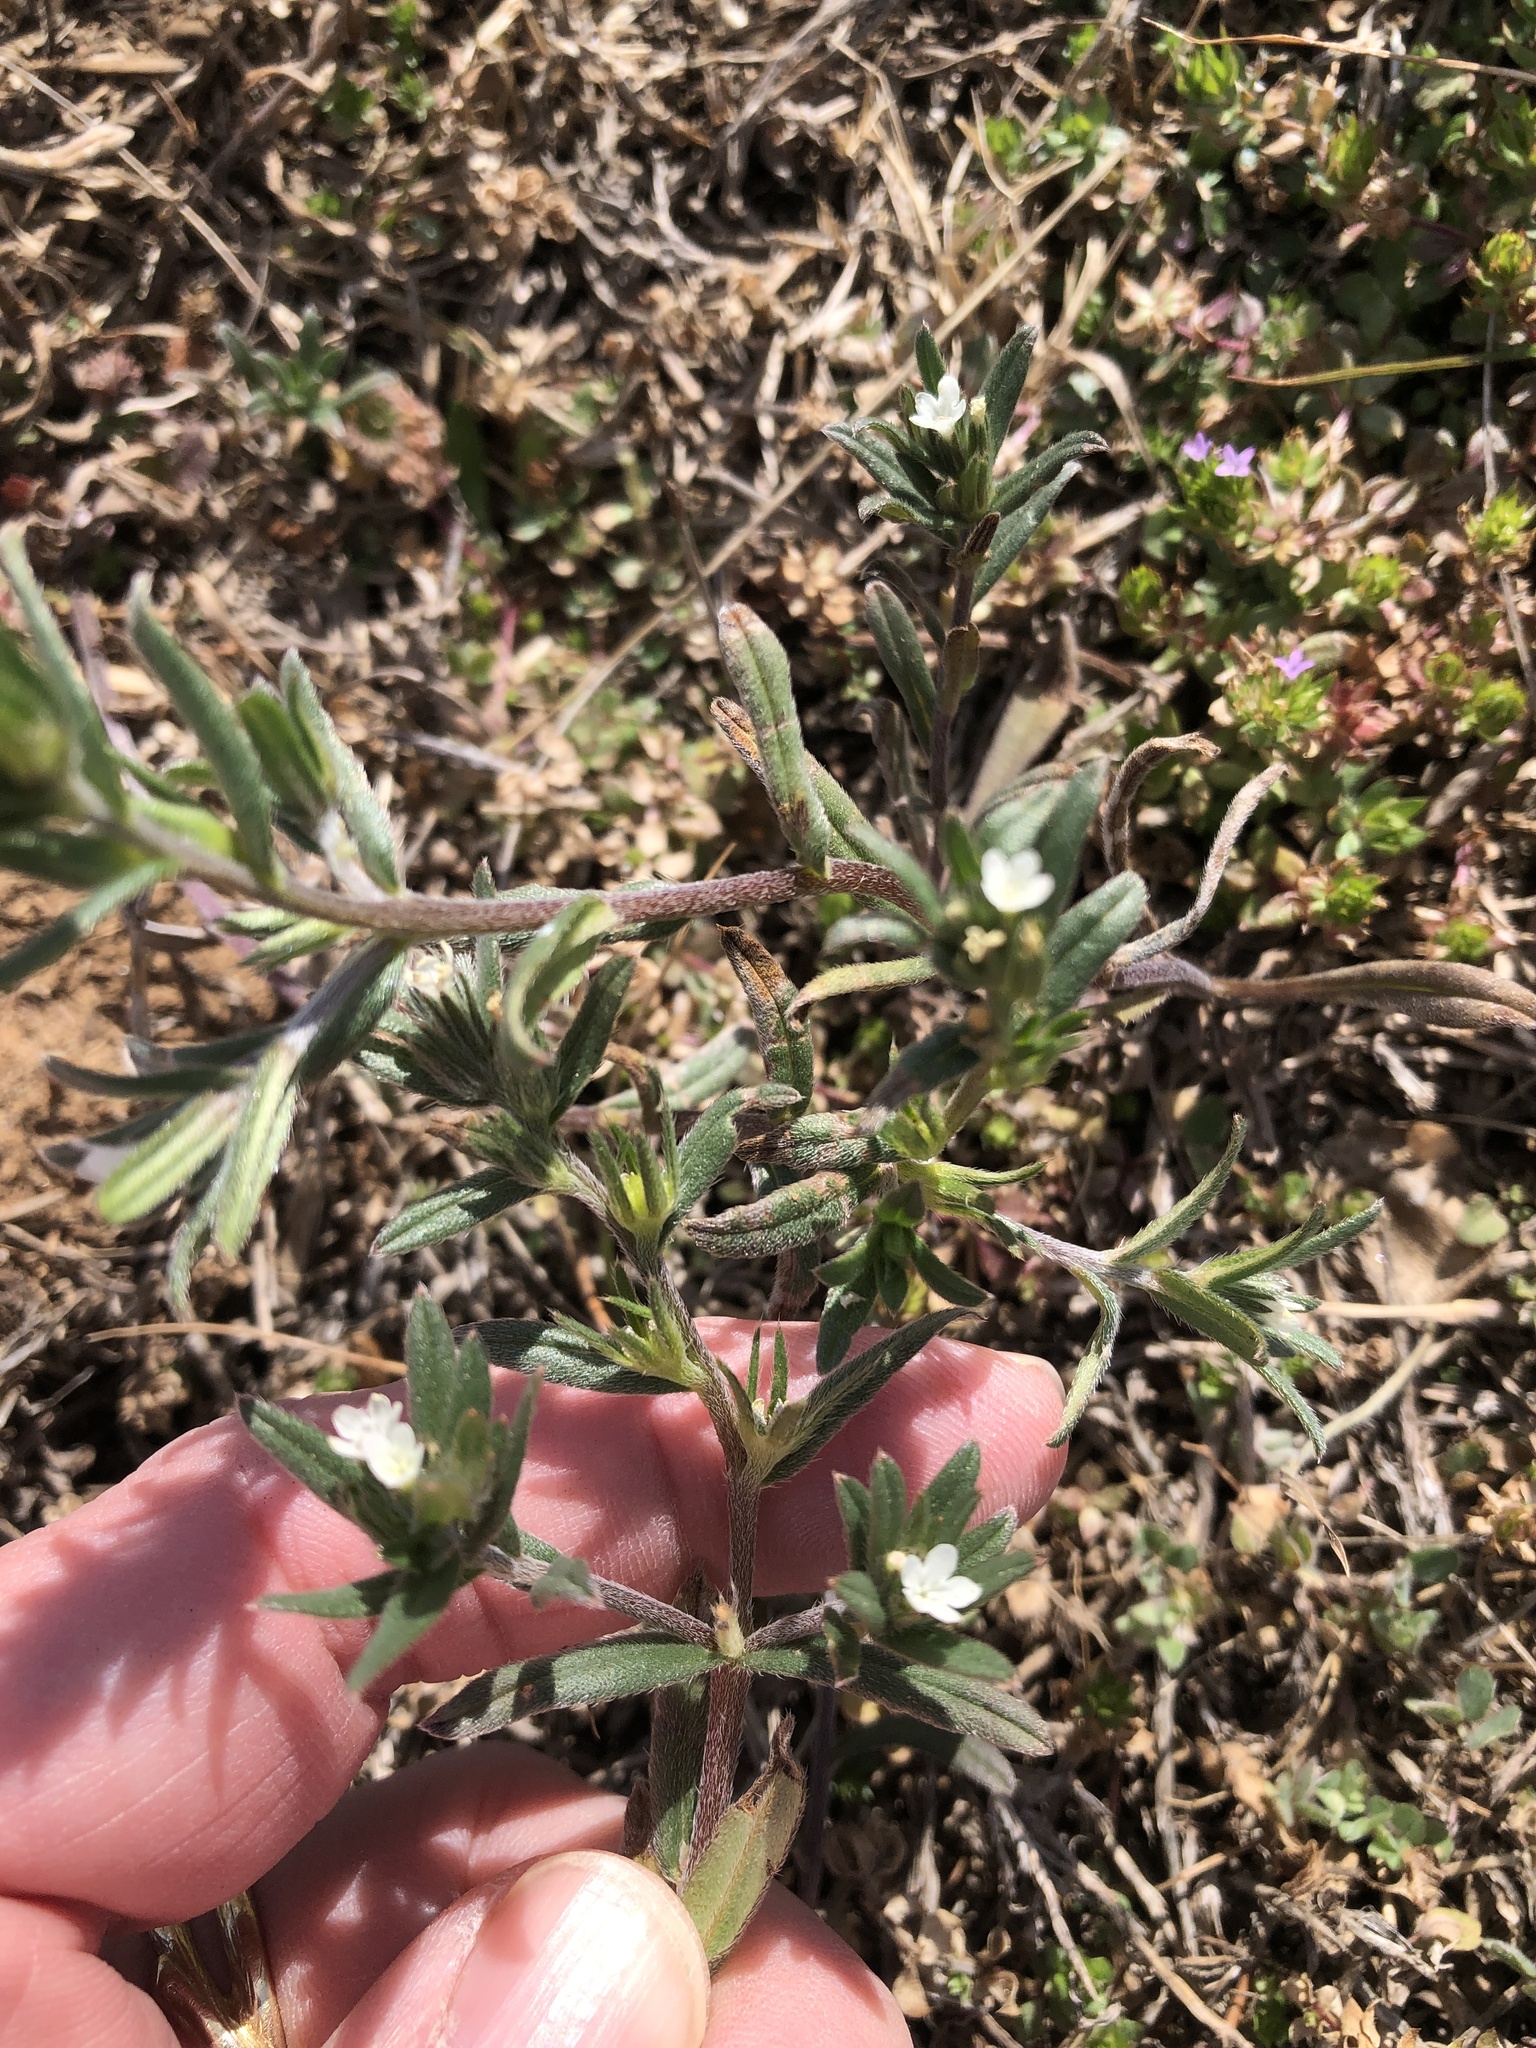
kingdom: Plantae
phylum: Tracheophyta
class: Magnoliopsida
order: Boraginales
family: Boraginaceae
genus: Buglossoides
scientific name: Buglossoides arvensis
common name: Corn gromwell
